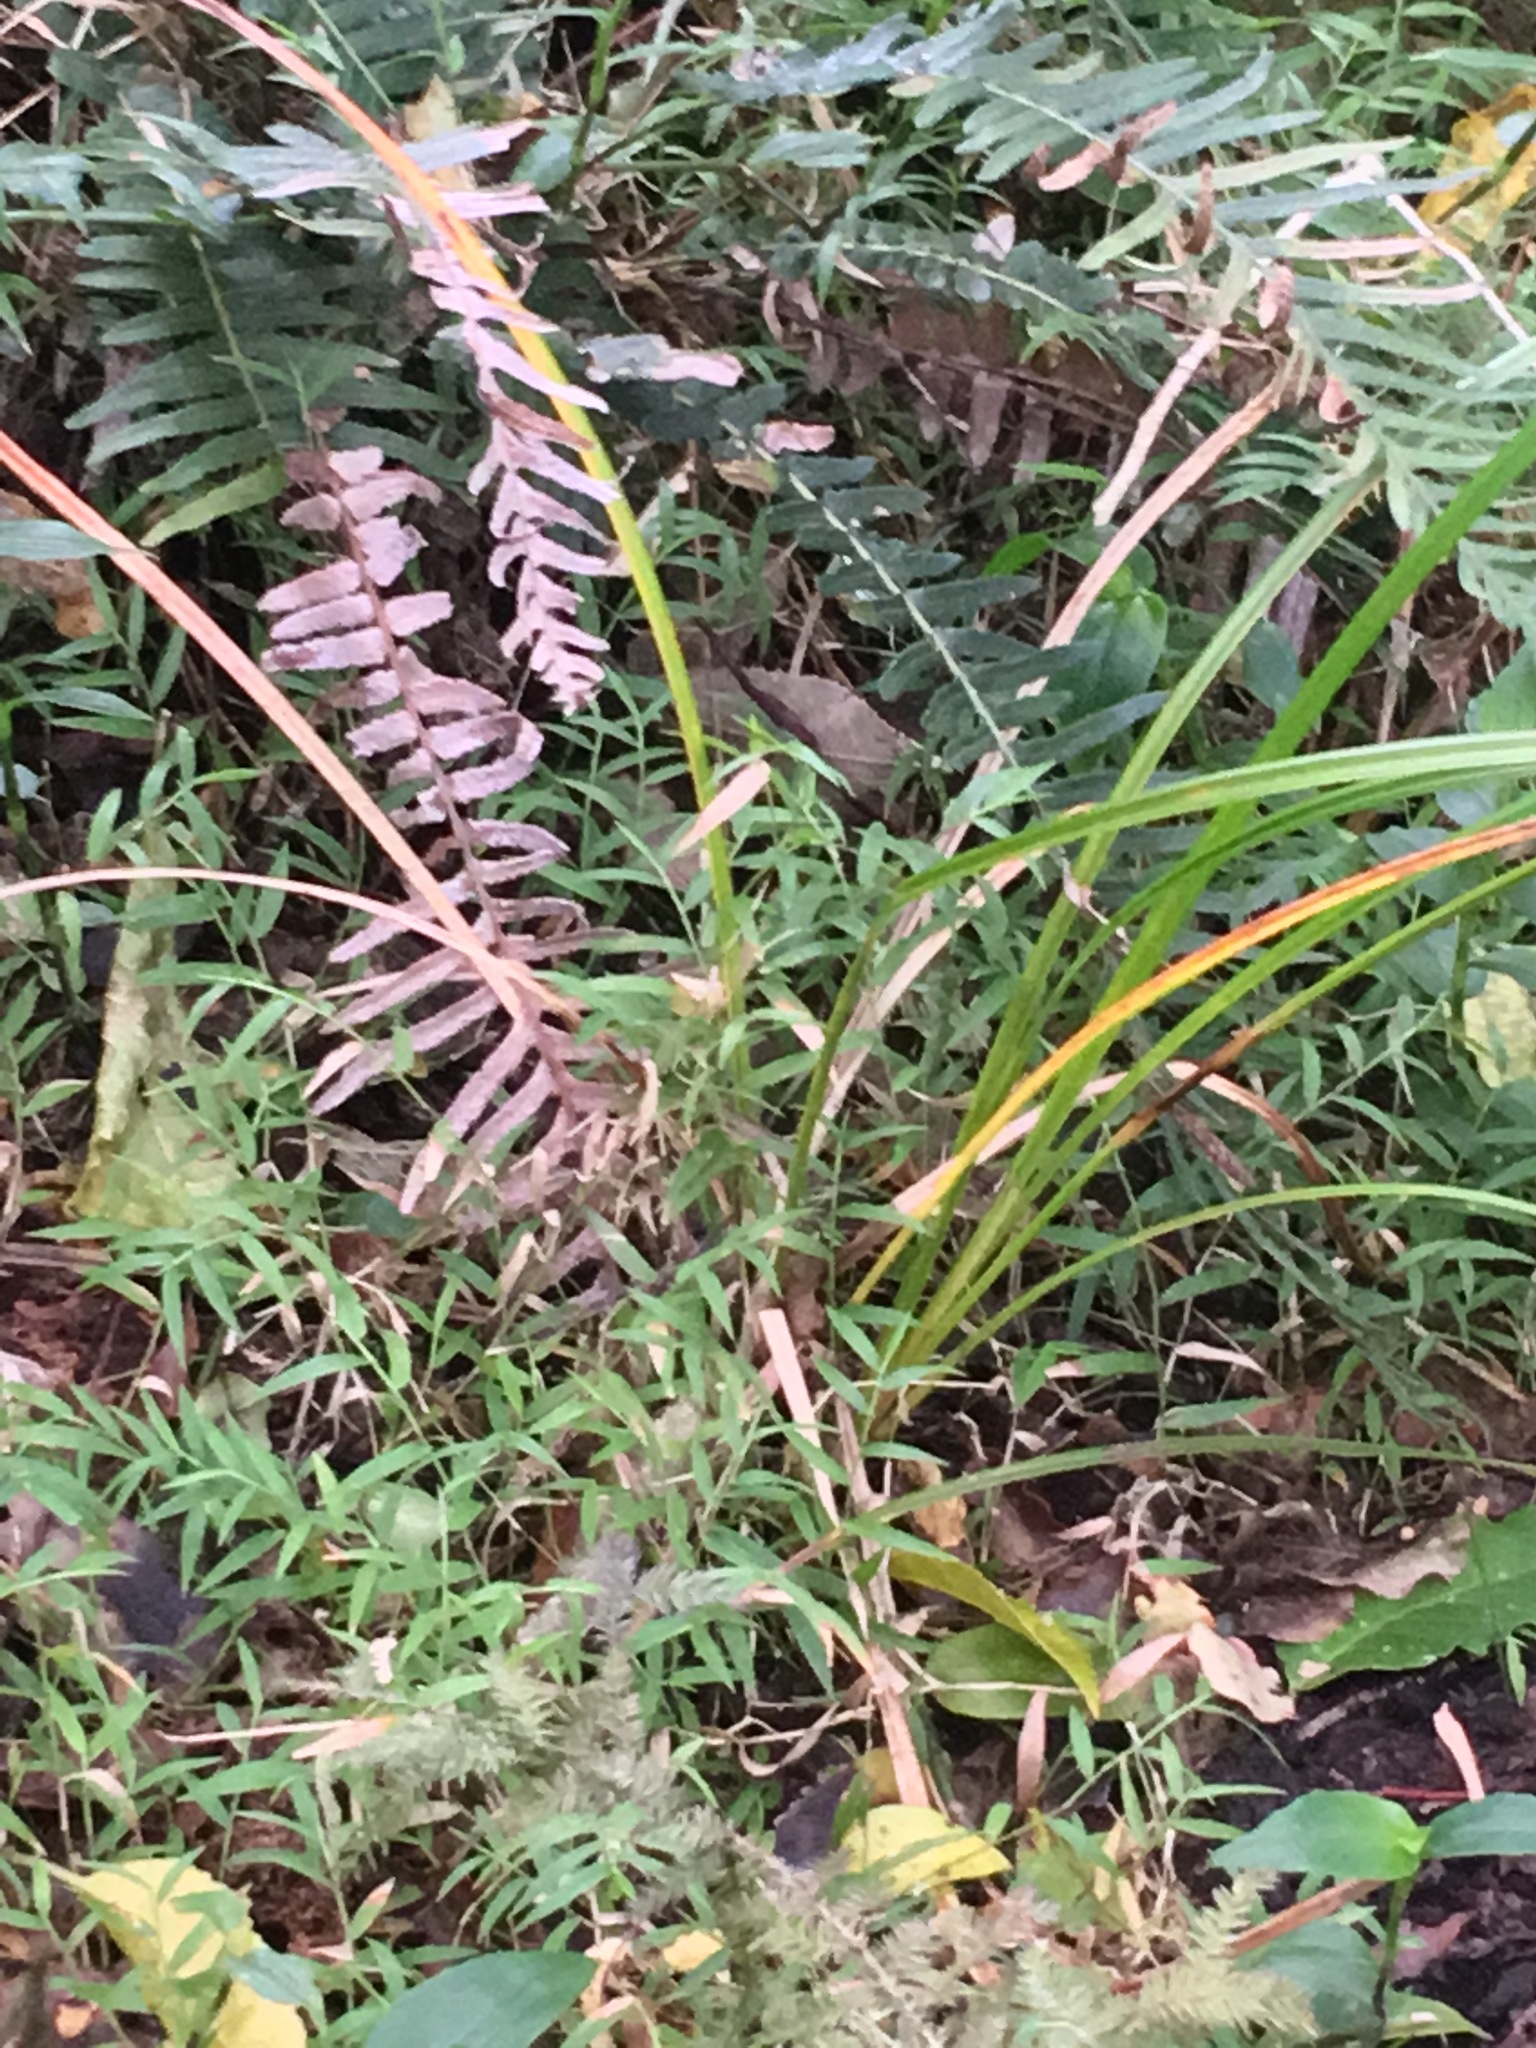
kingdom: Plantae
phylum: Tracheophyta
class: Liliopsida
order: Poales
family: Poaceae
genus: Oplismenus
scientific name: Oplismenus hirtellus
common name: Basketgrass
